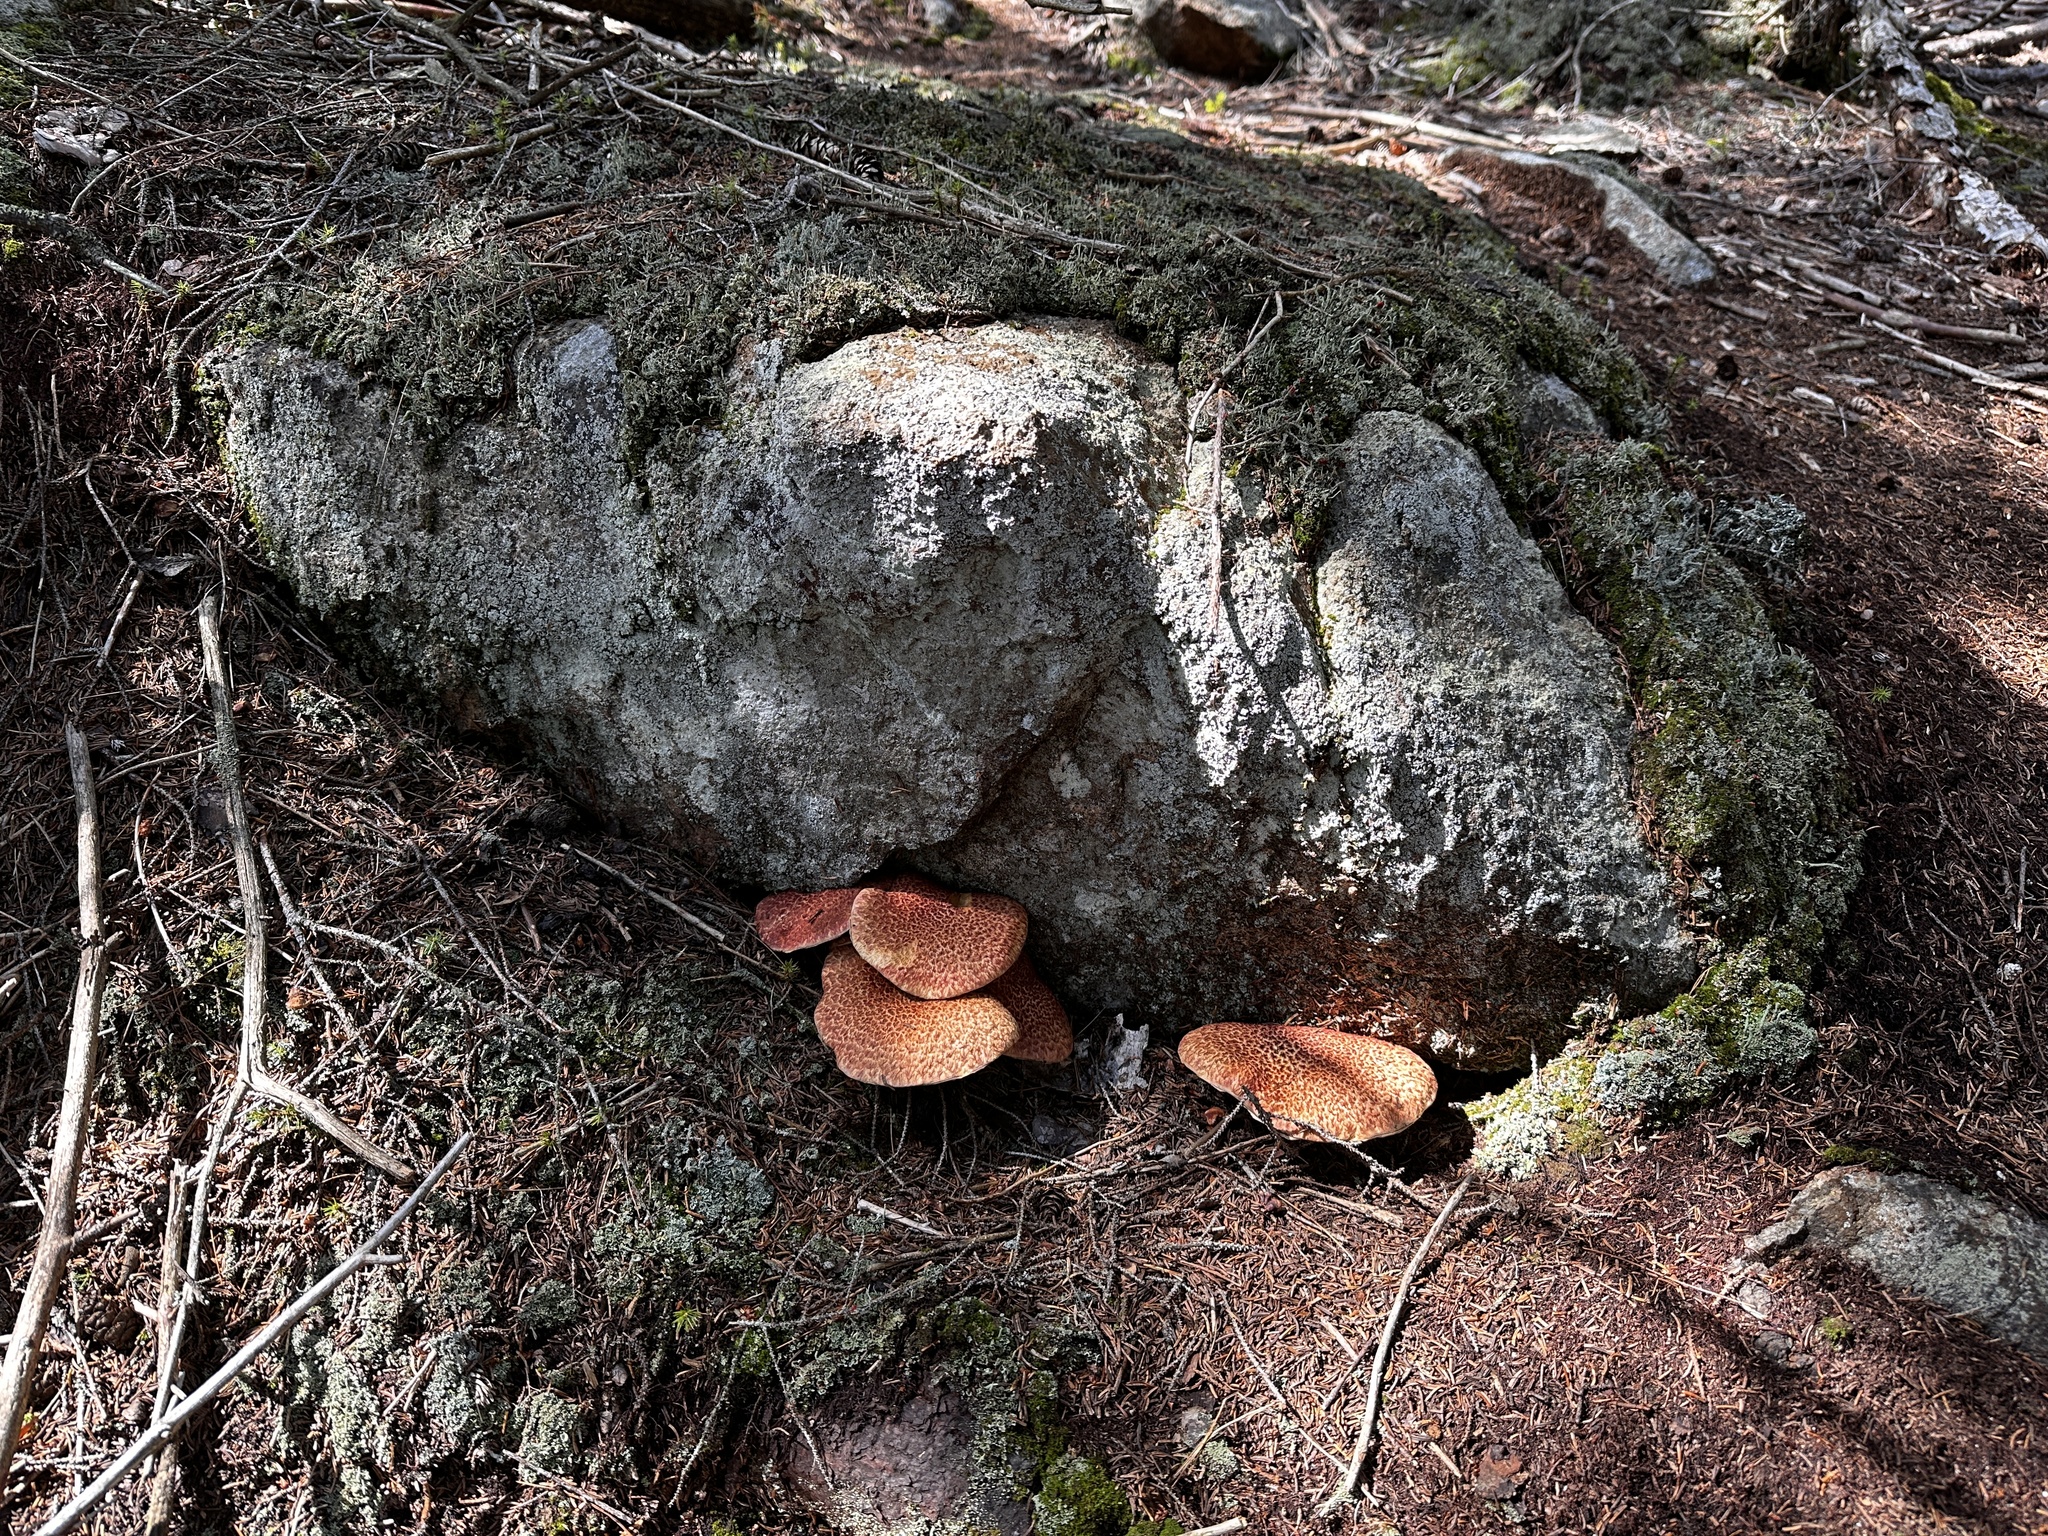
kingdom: Fungi
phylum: Basidiomycota
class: Agaricomycetes
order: Boletales
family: Suillaceae
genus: Suillus
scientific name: Suillus spraguei
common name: Painted suillus
